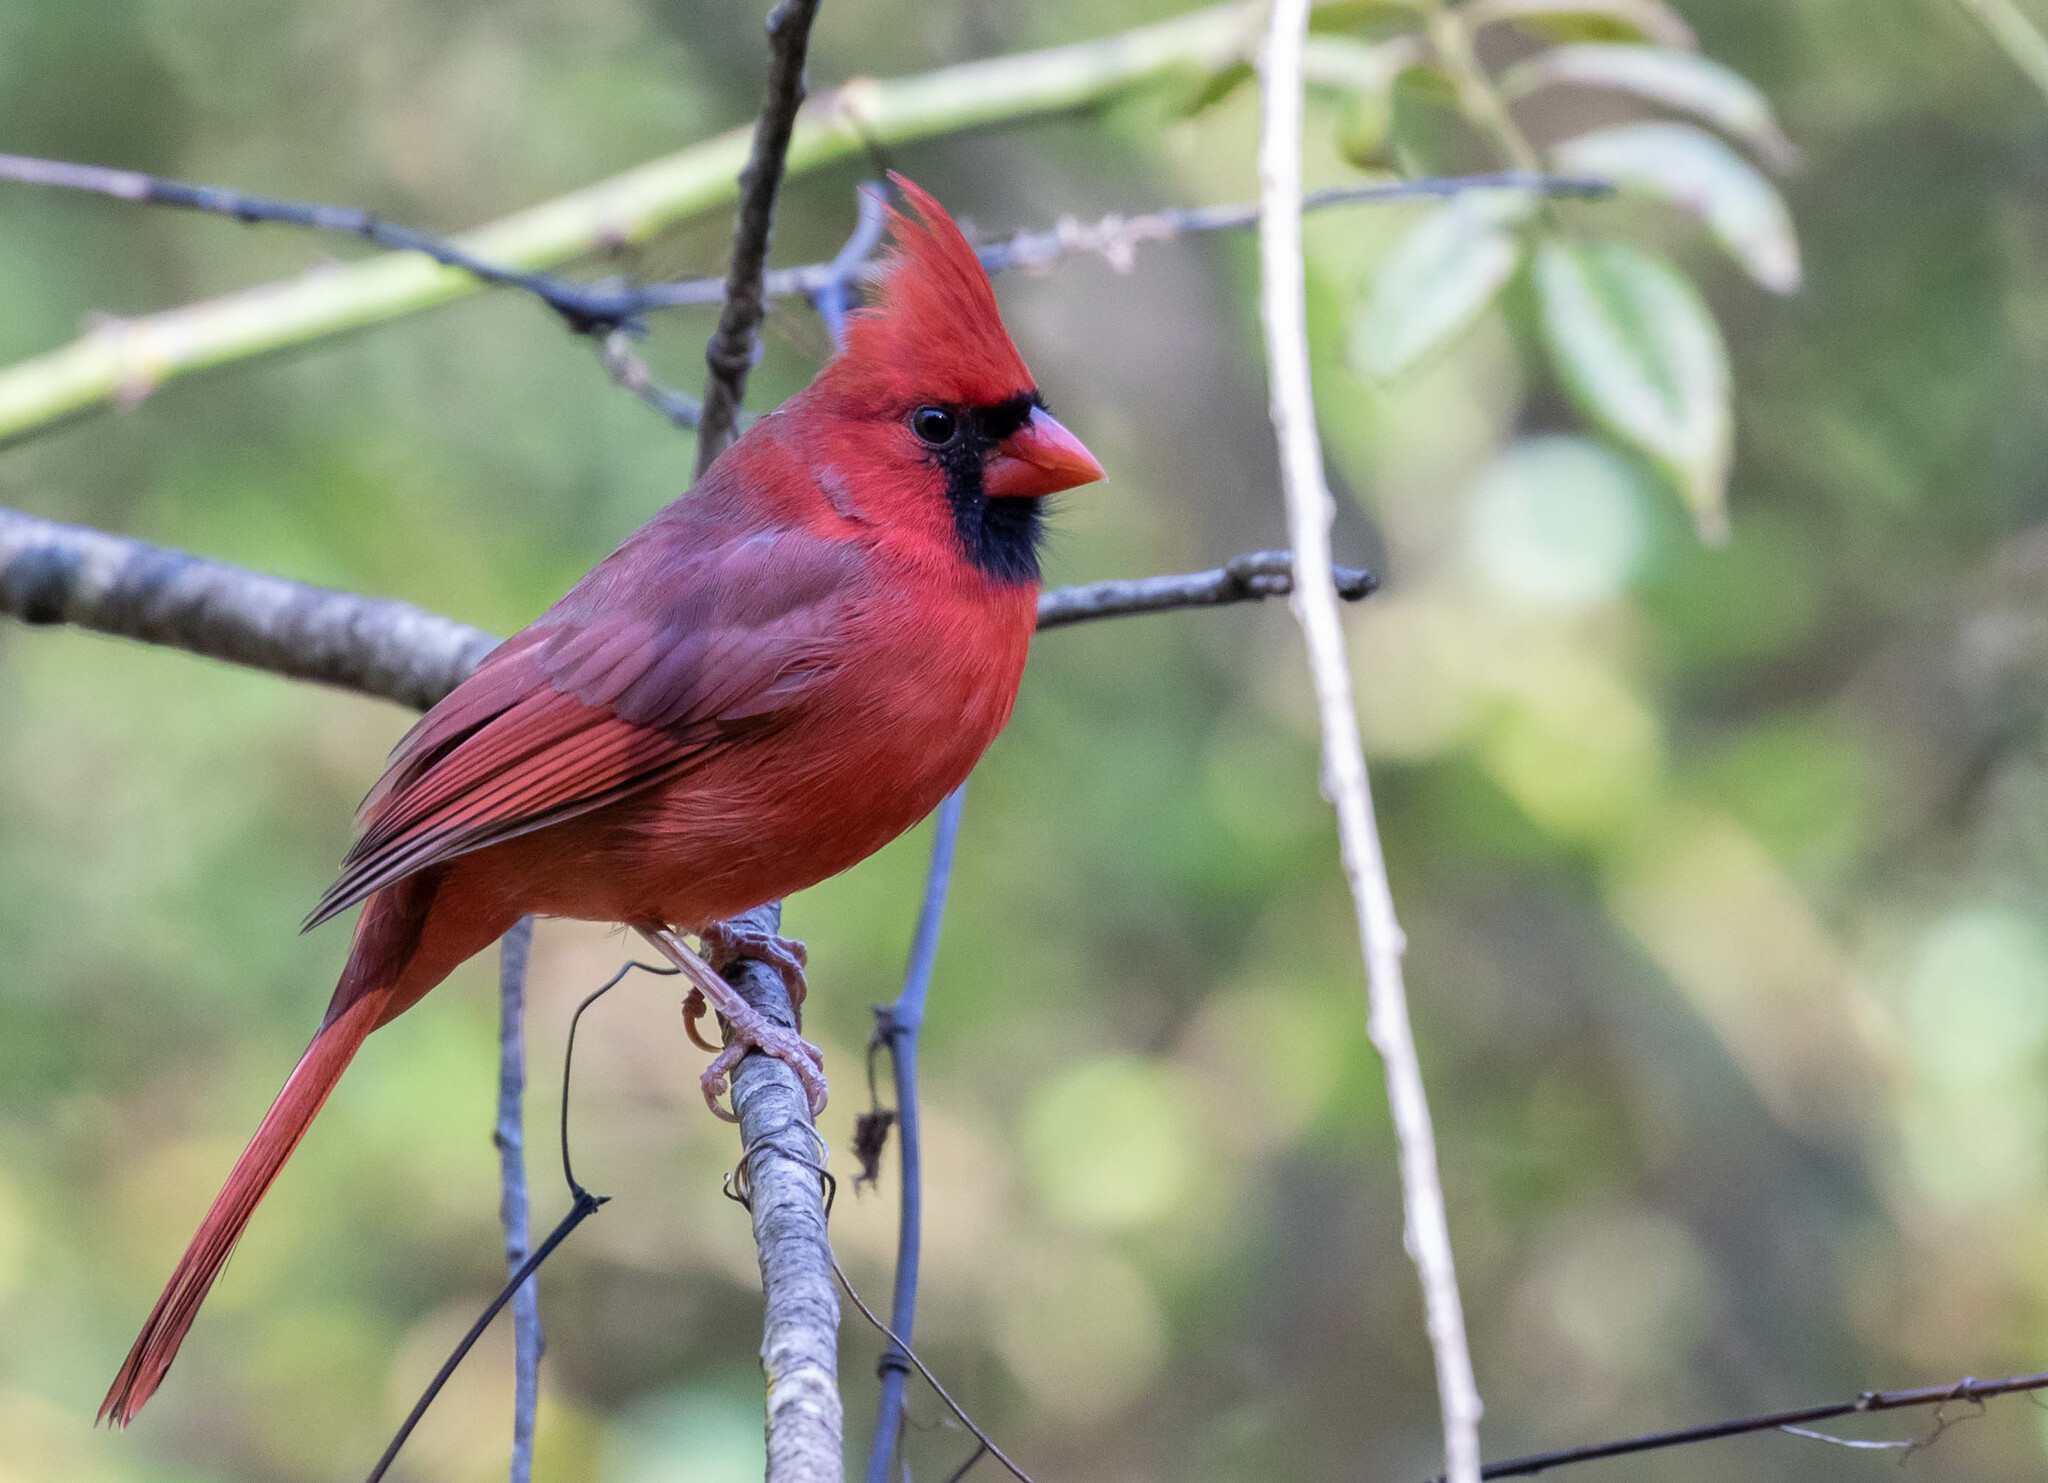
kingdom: Animalia
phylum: Chordata
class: Aves
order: Passeriformes
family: Cardinalidae
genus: Cardinalis
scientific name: Cardinalis cardinalis
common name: Northern cardinal
